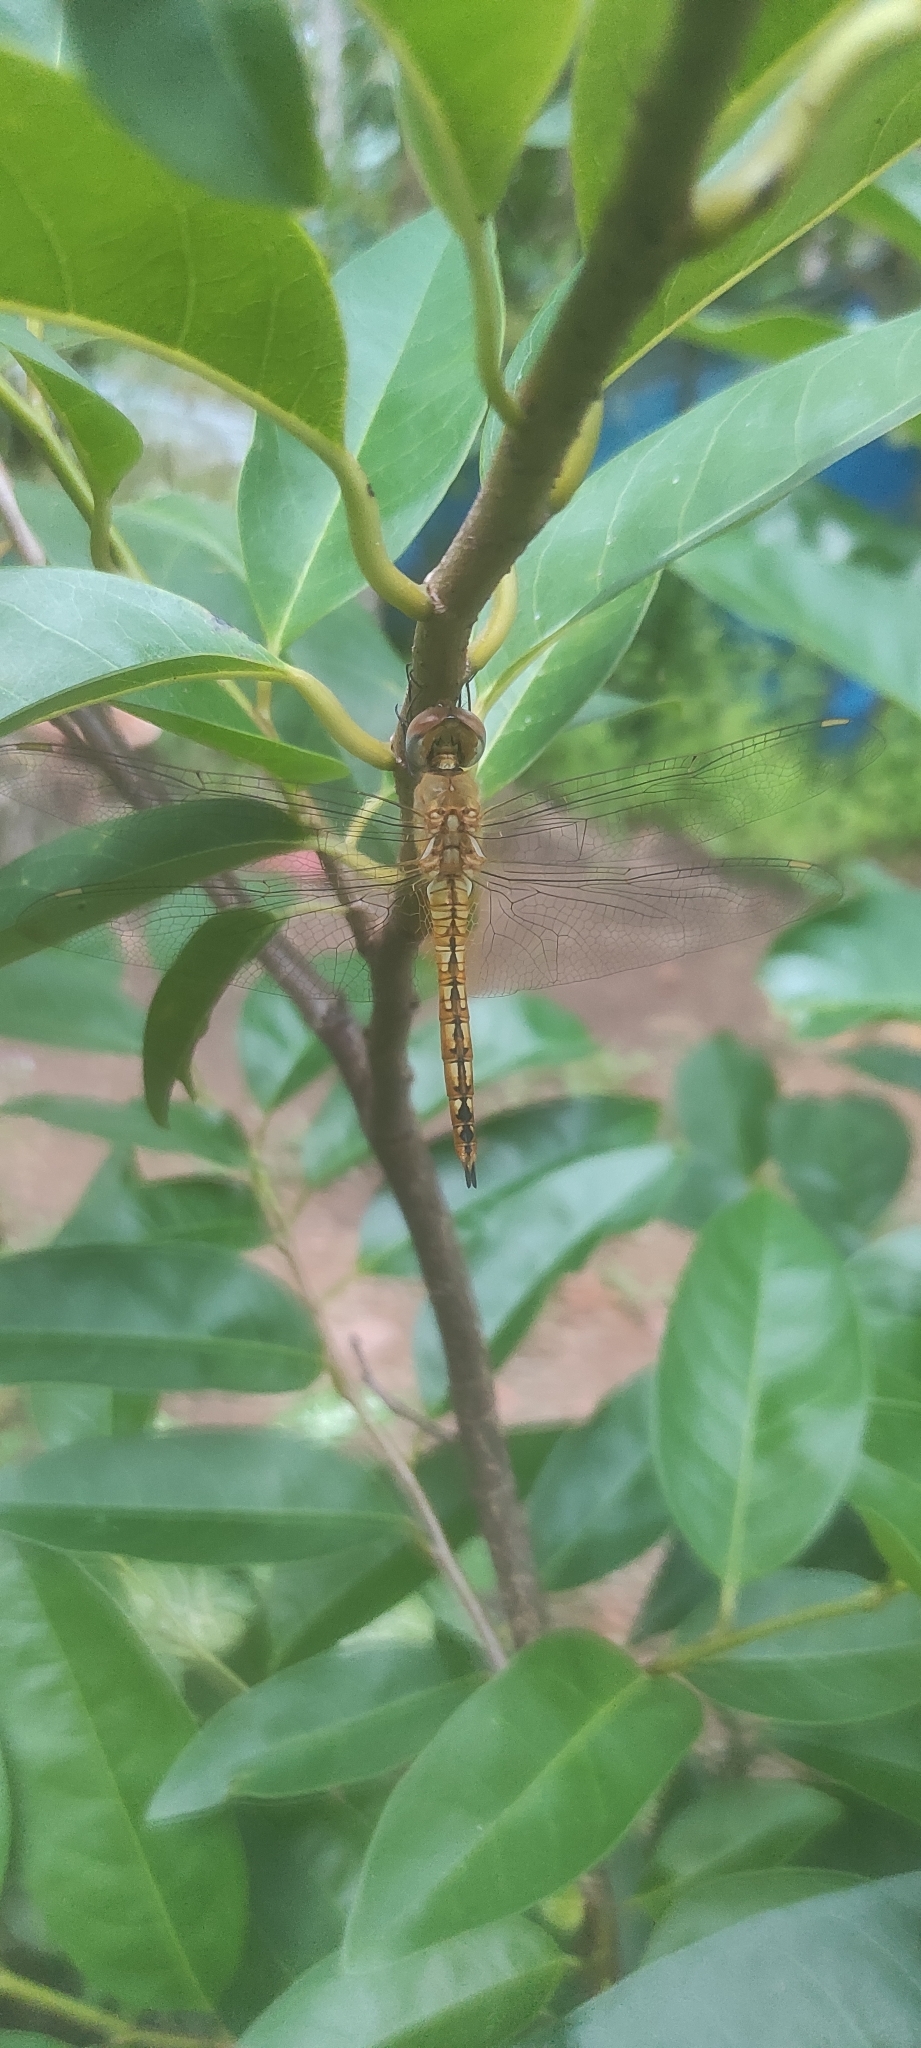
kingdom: Animalia
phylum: Arthropoda
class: Insecta
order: Odonata
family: Libellulidae
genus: Pantala
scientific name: Pantala flavescens
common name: Wandering glider
